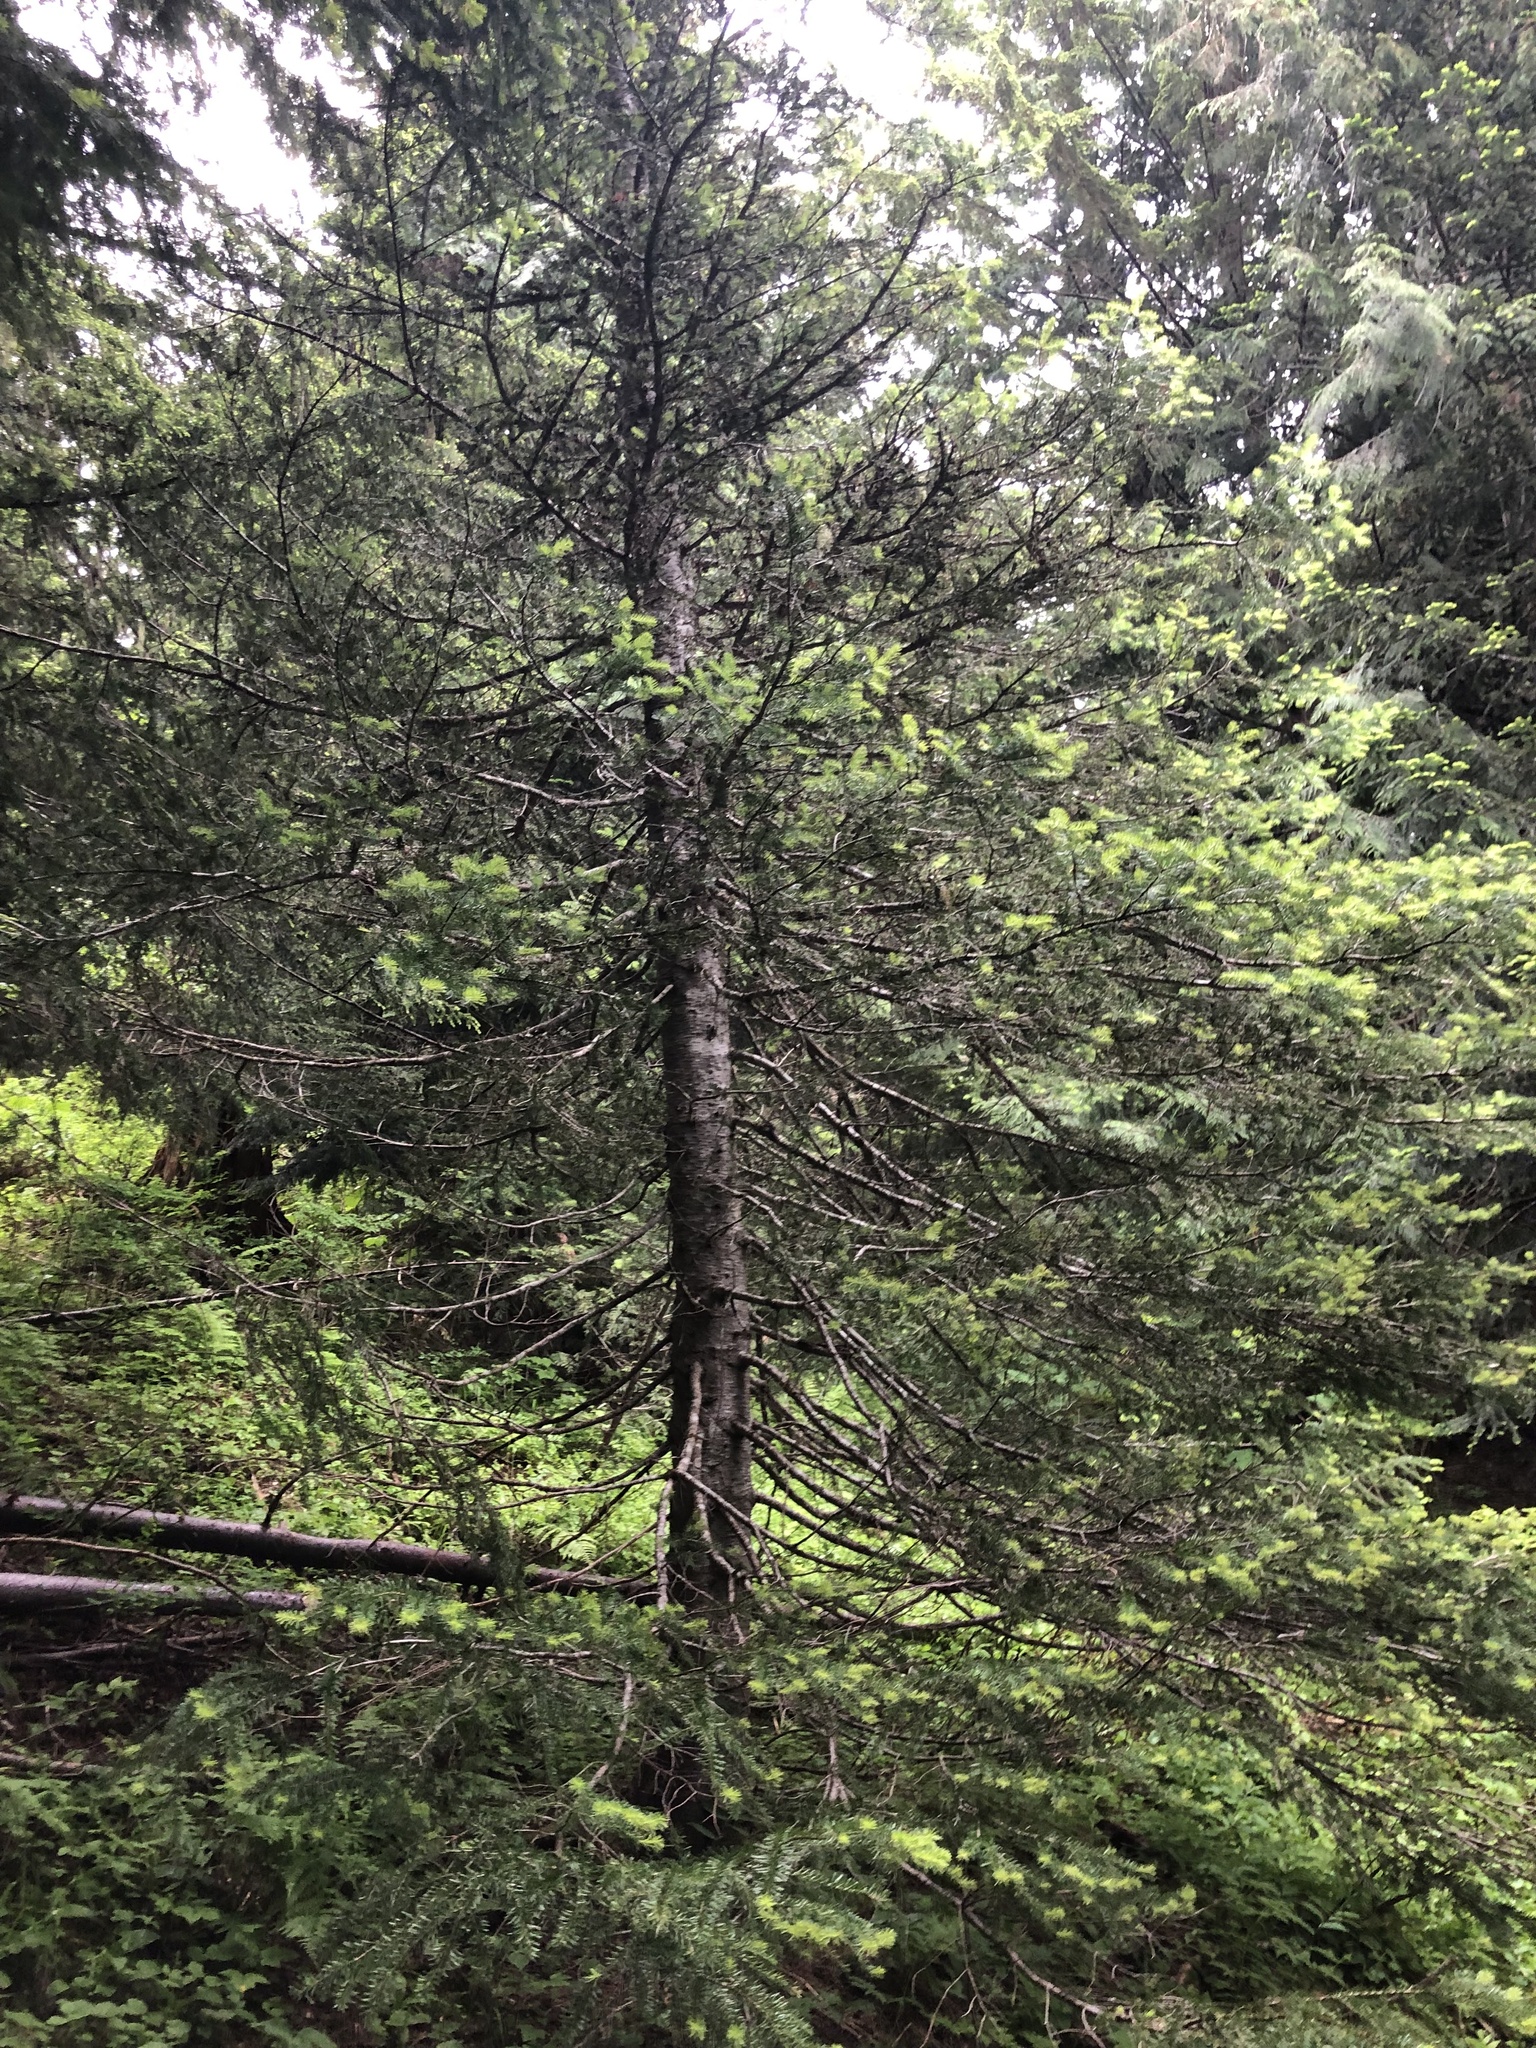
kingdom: Plantae
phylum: Tracheophyta
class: Pinopsida
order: Pinales
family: Pinaceae
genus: Abies
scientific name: Abies lasiocarpa
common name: Subalpine fir
